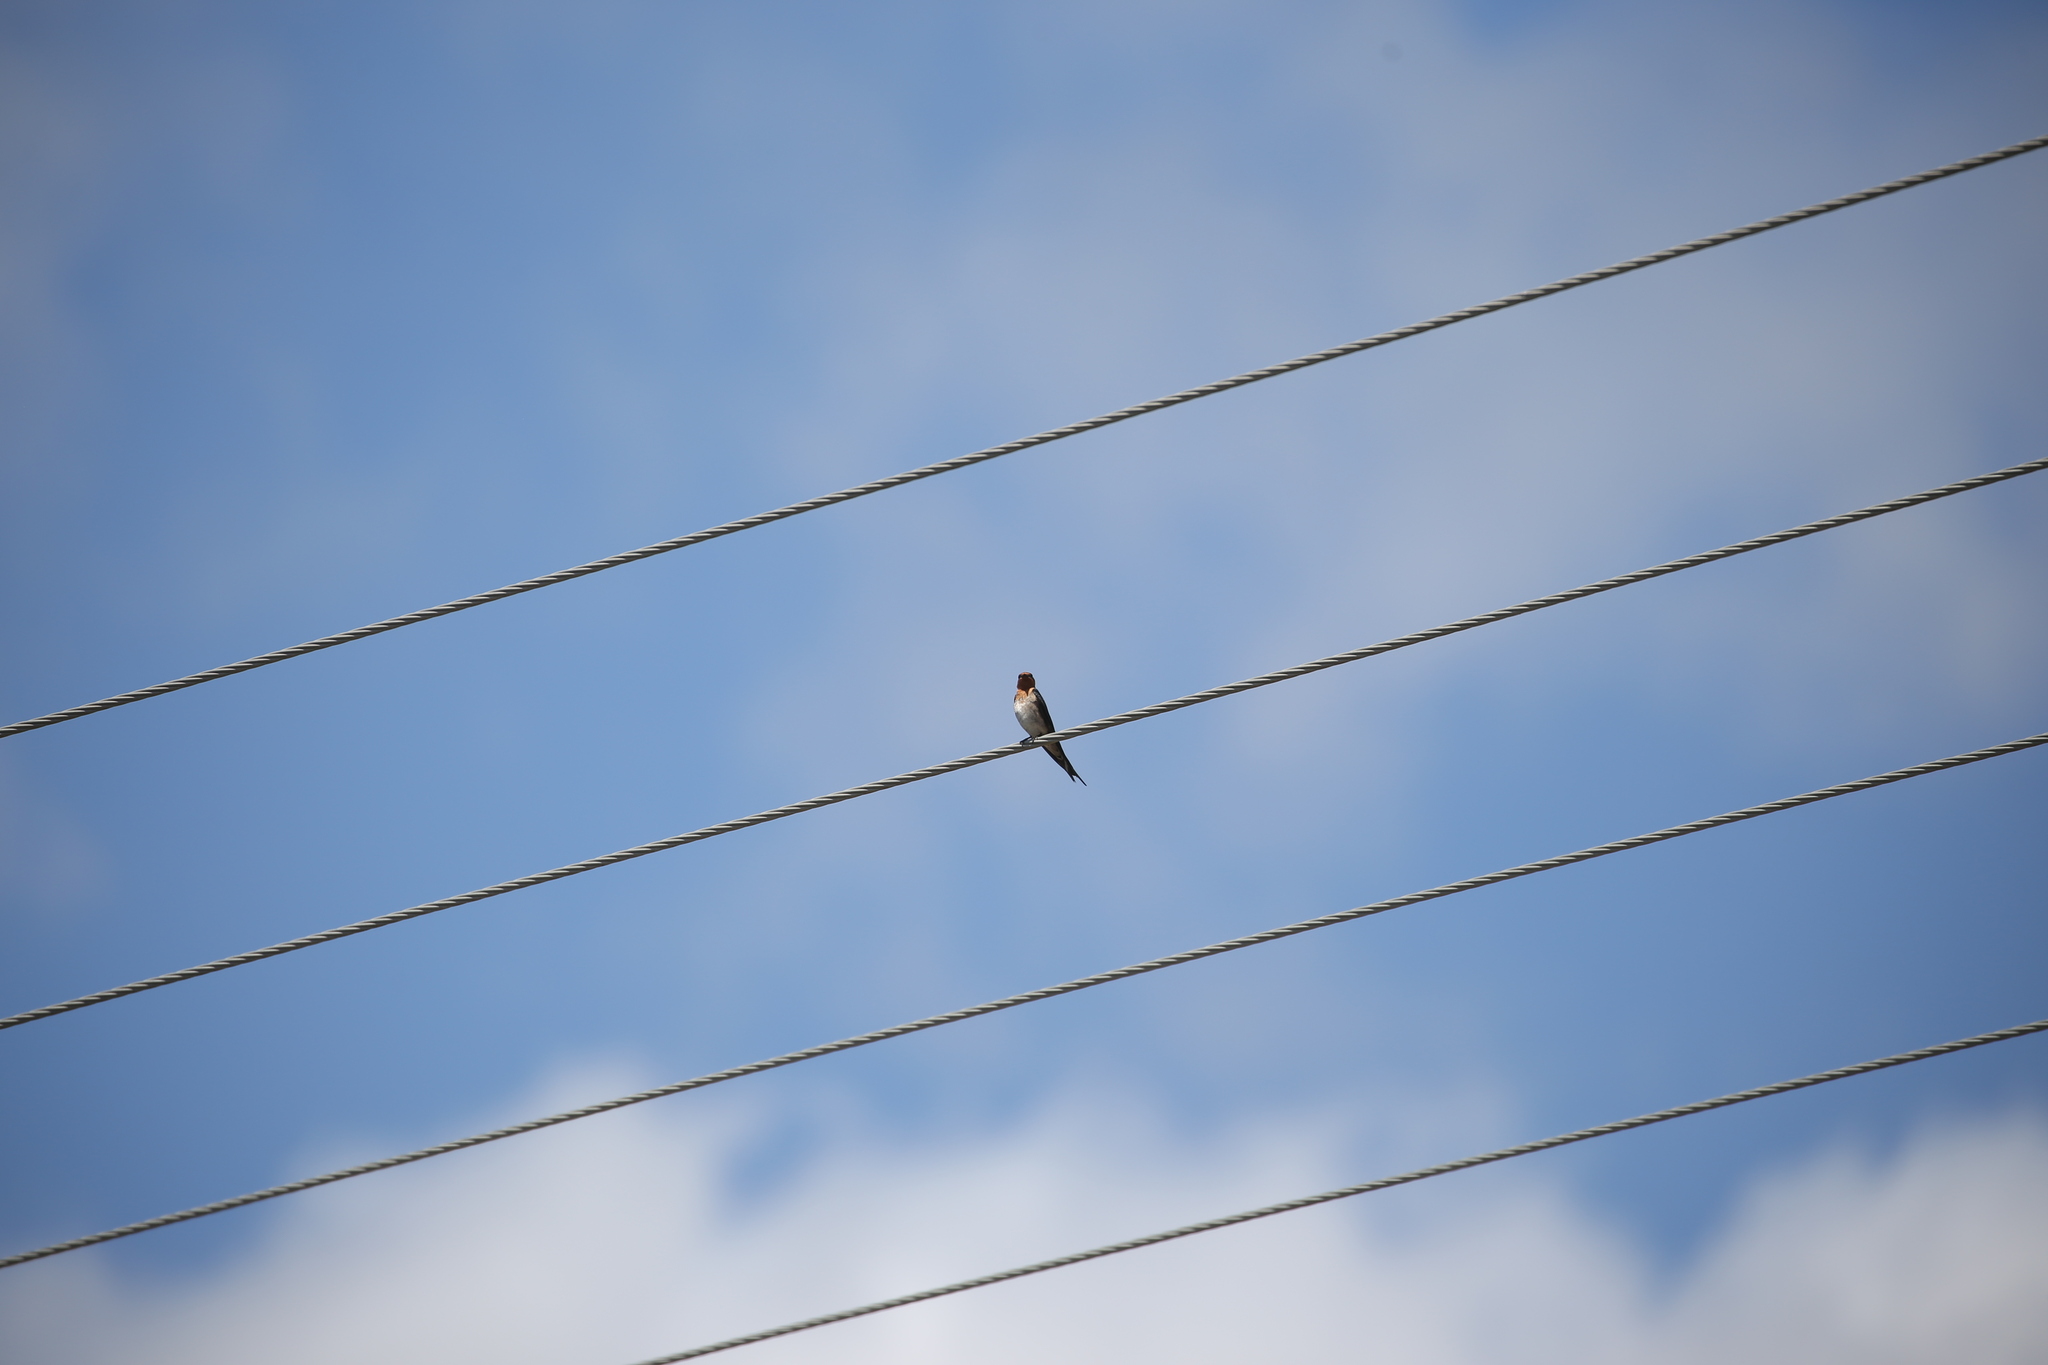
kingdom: Animalia
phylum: Chordata
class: Aves
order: Passeriformes
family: Hirundinidae
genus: Hirundo
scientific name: Hirundo neoxena
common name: Welcome swallow
